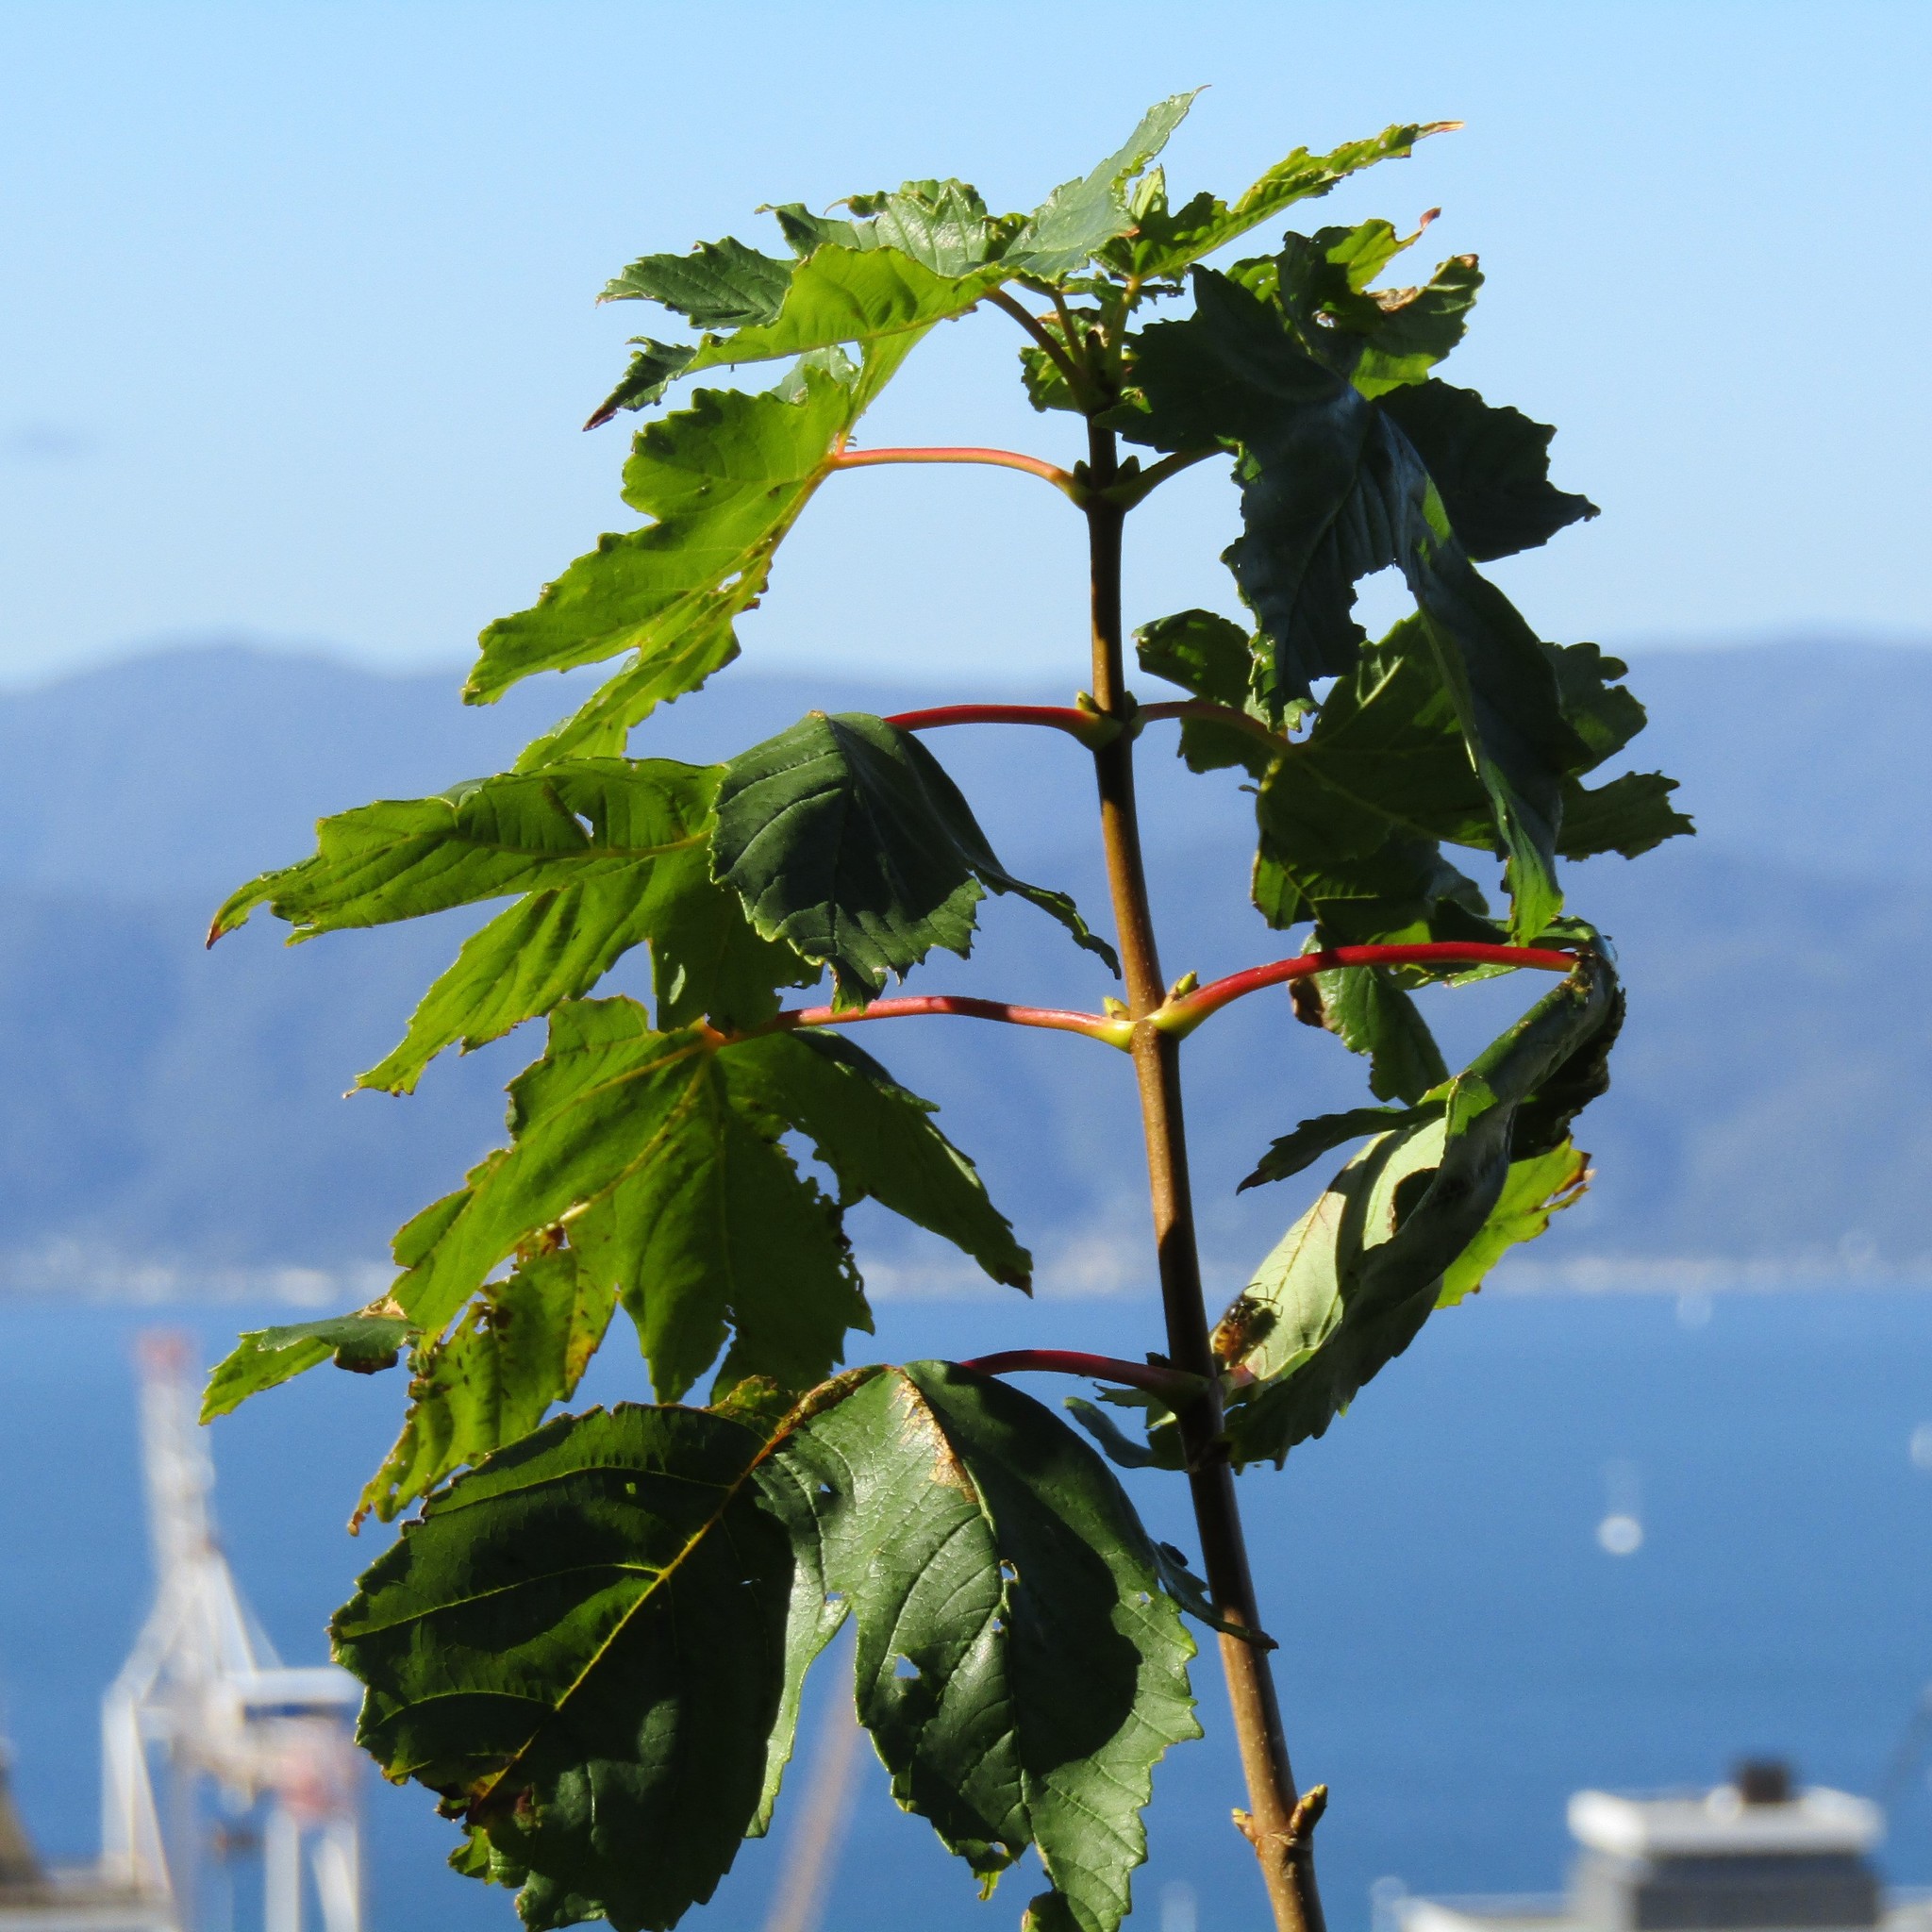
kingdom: Plantae
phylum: Tracheophyta
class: Magnoliopsida
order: Sapindales
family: Sapindaceae
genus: Acer
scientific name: Acer pseudoplatanus
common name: Sycamore
